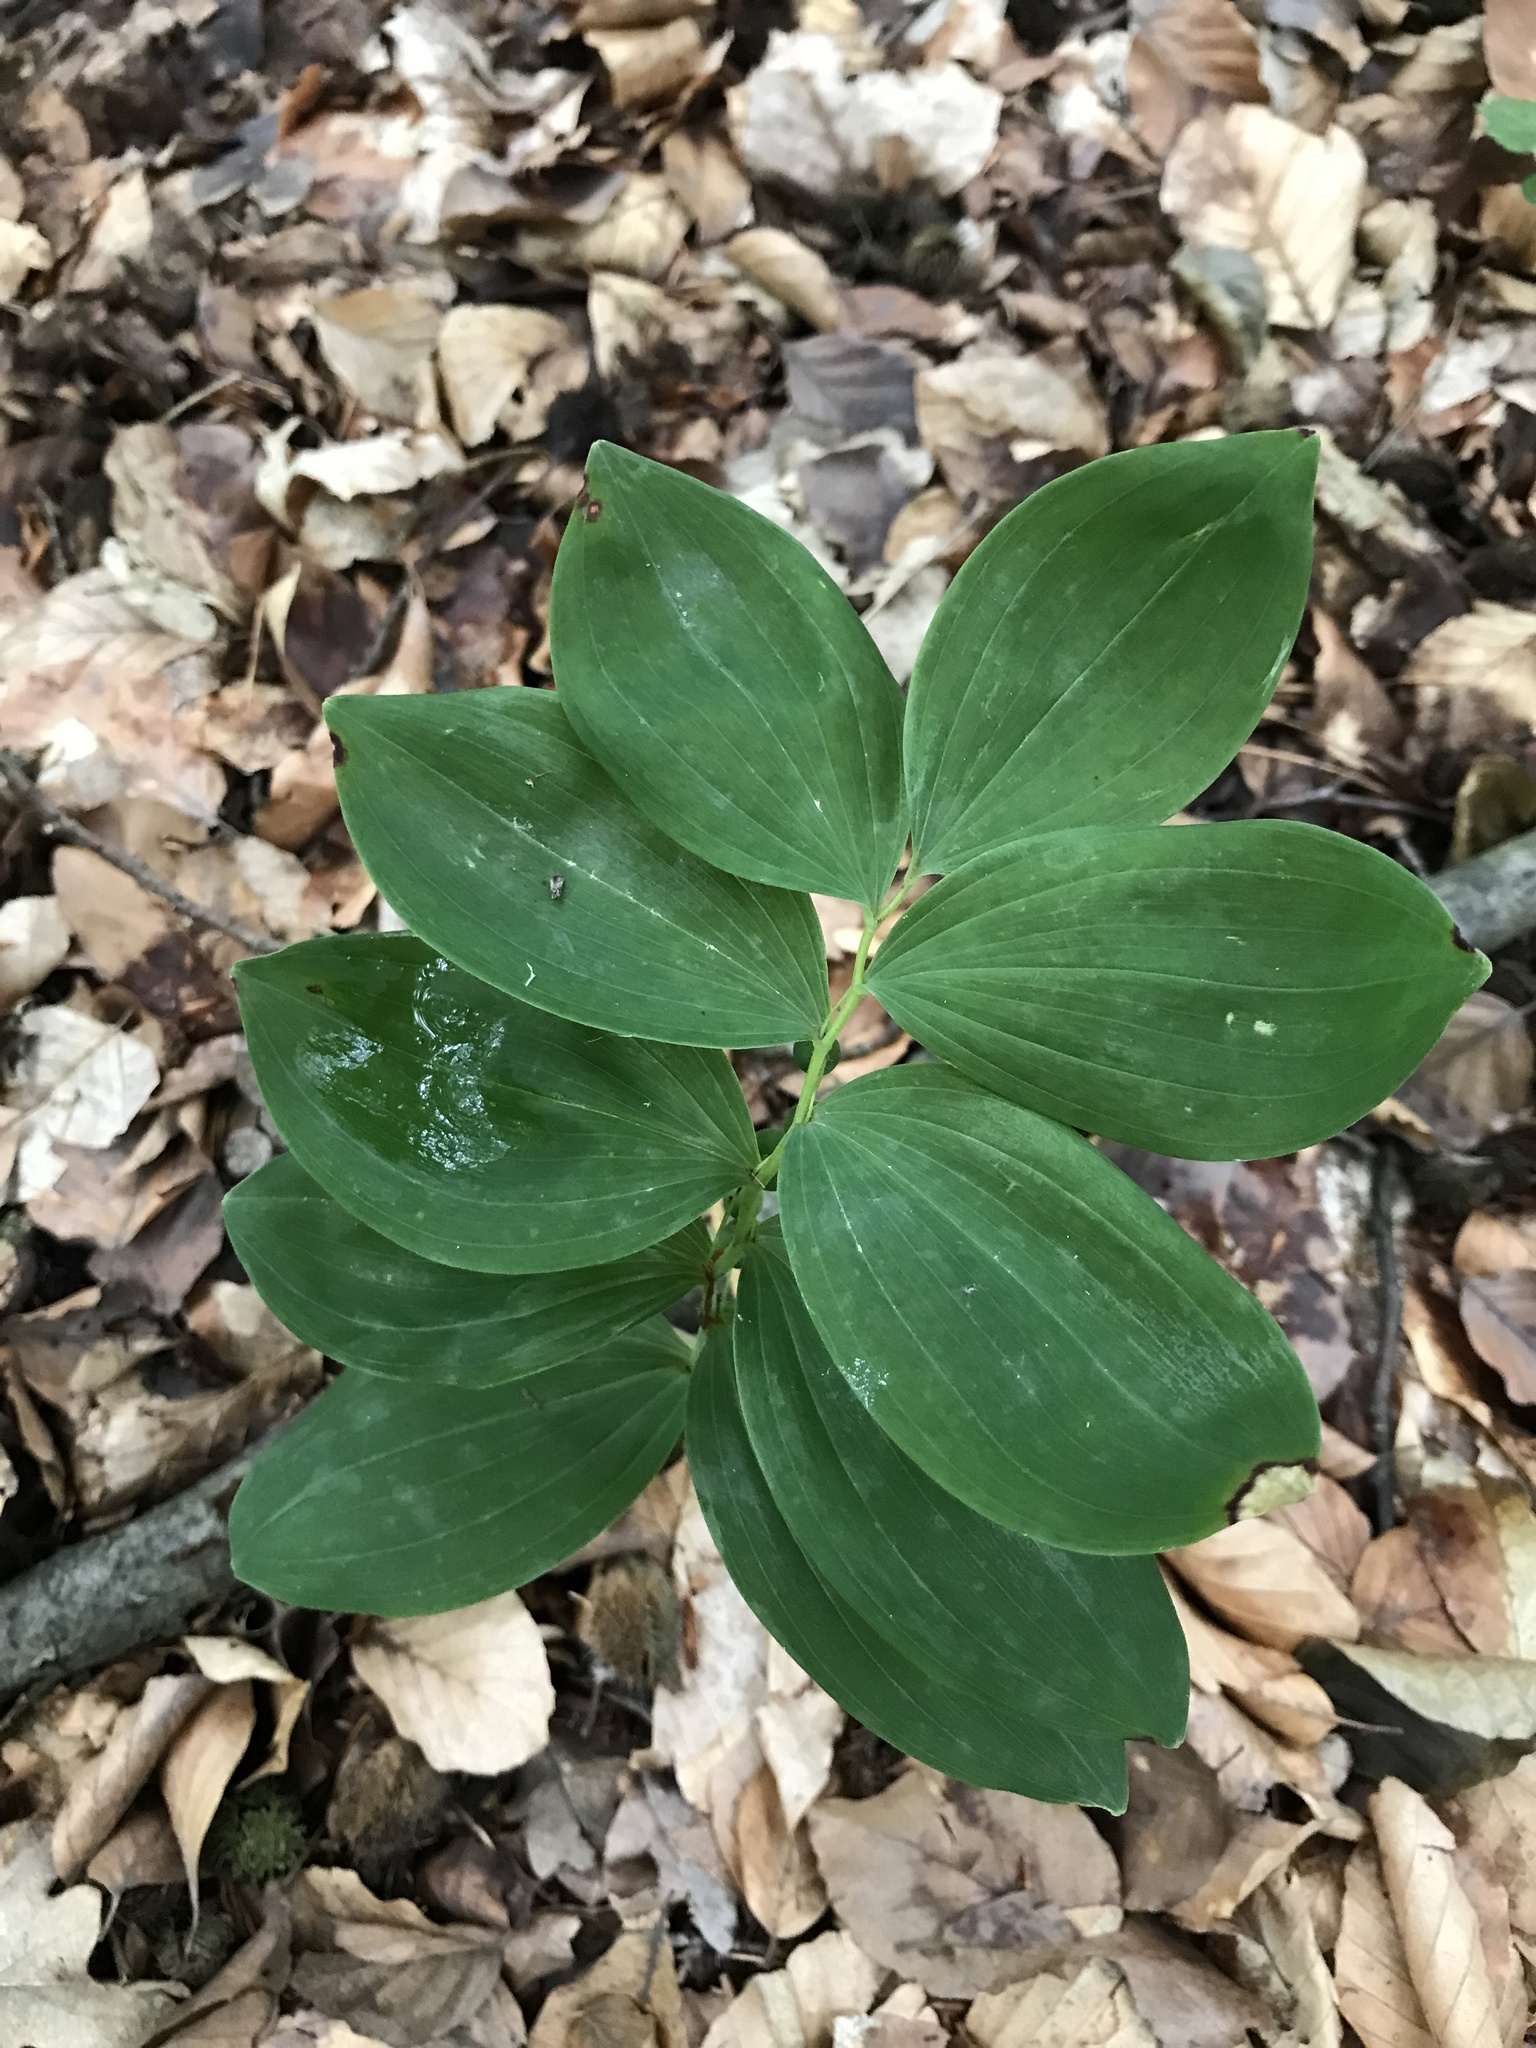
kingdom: Plantae
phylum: Tracheophyta
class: Liliopsida
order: Asparagales
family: Asparagaceae
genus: Polygonatum
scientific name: Polygonatum multiflorum
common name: Solomon's-seal
